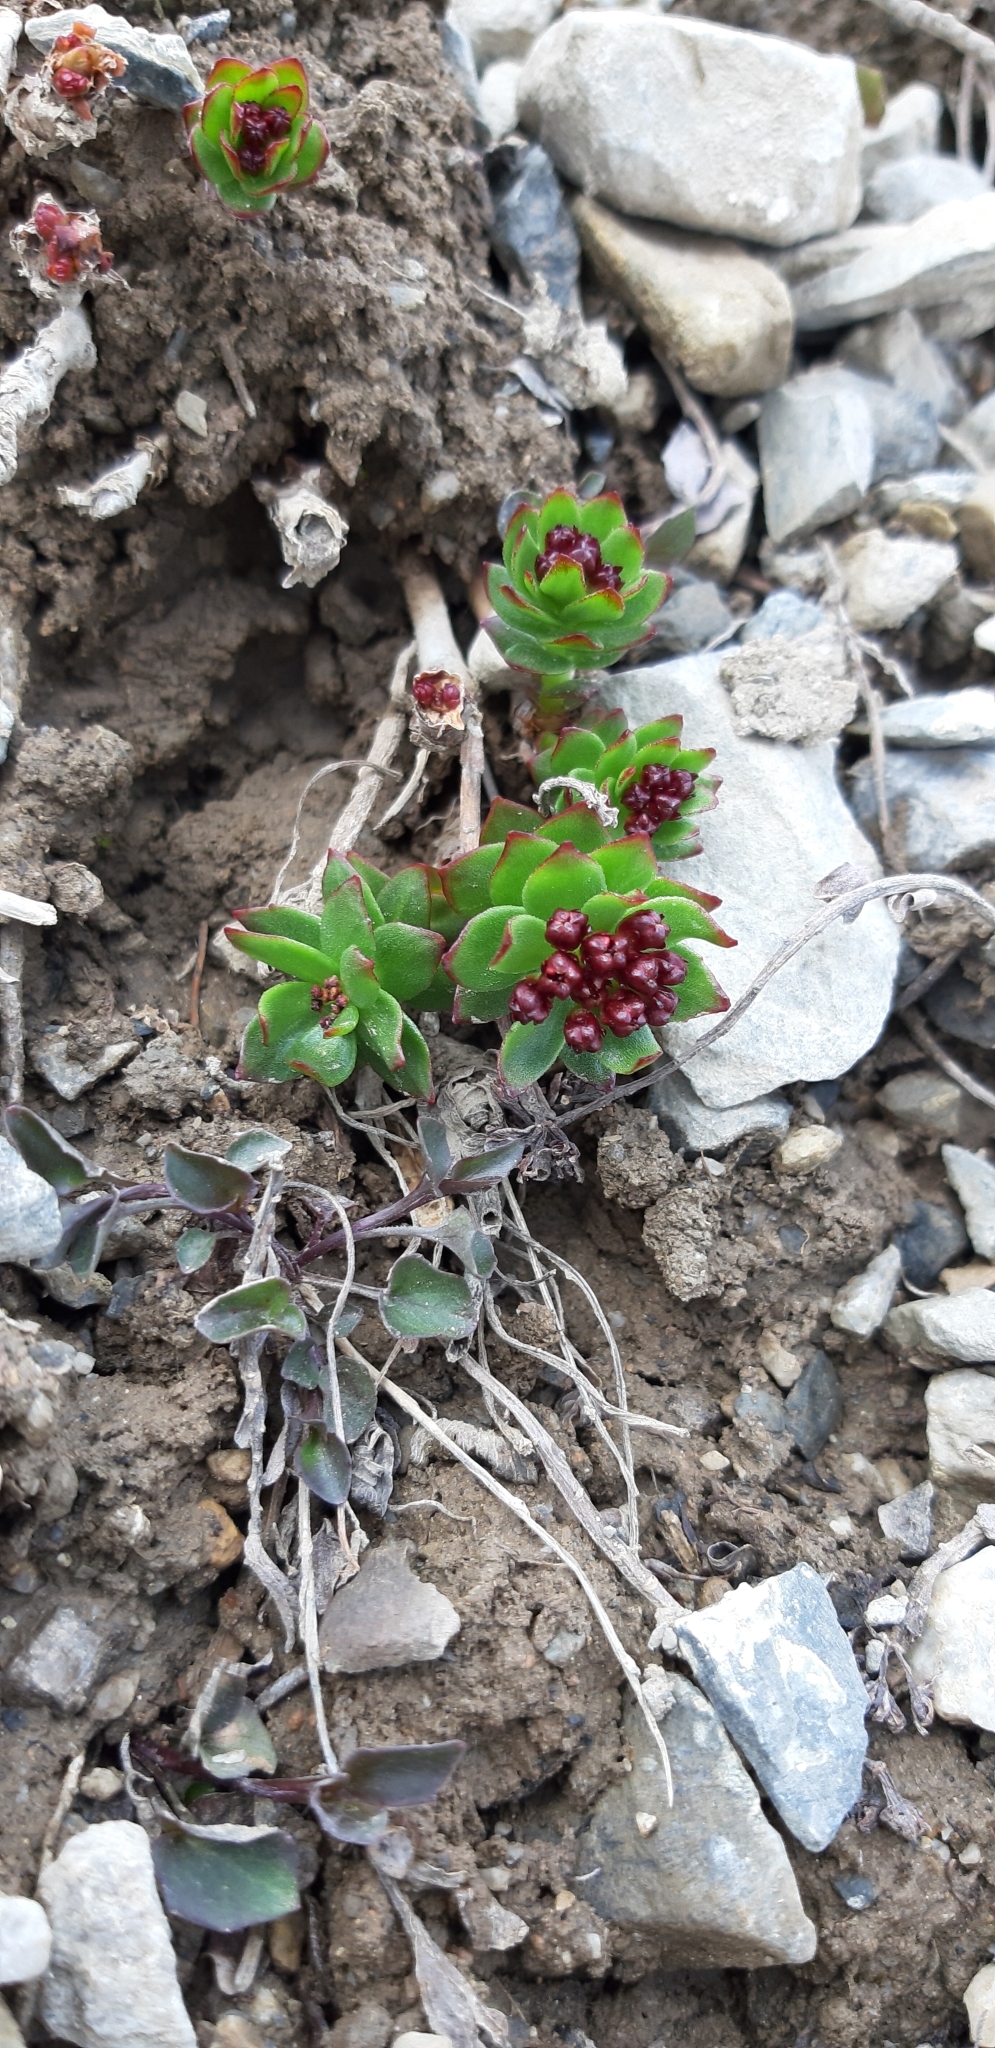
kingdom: Plantae
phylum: Tracheophyta
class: Magnoliopsida
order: Saxifragales
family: Crassulaceae
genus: Rhodiola
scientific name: Rhodiola integrifolia
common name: Western roseroot
